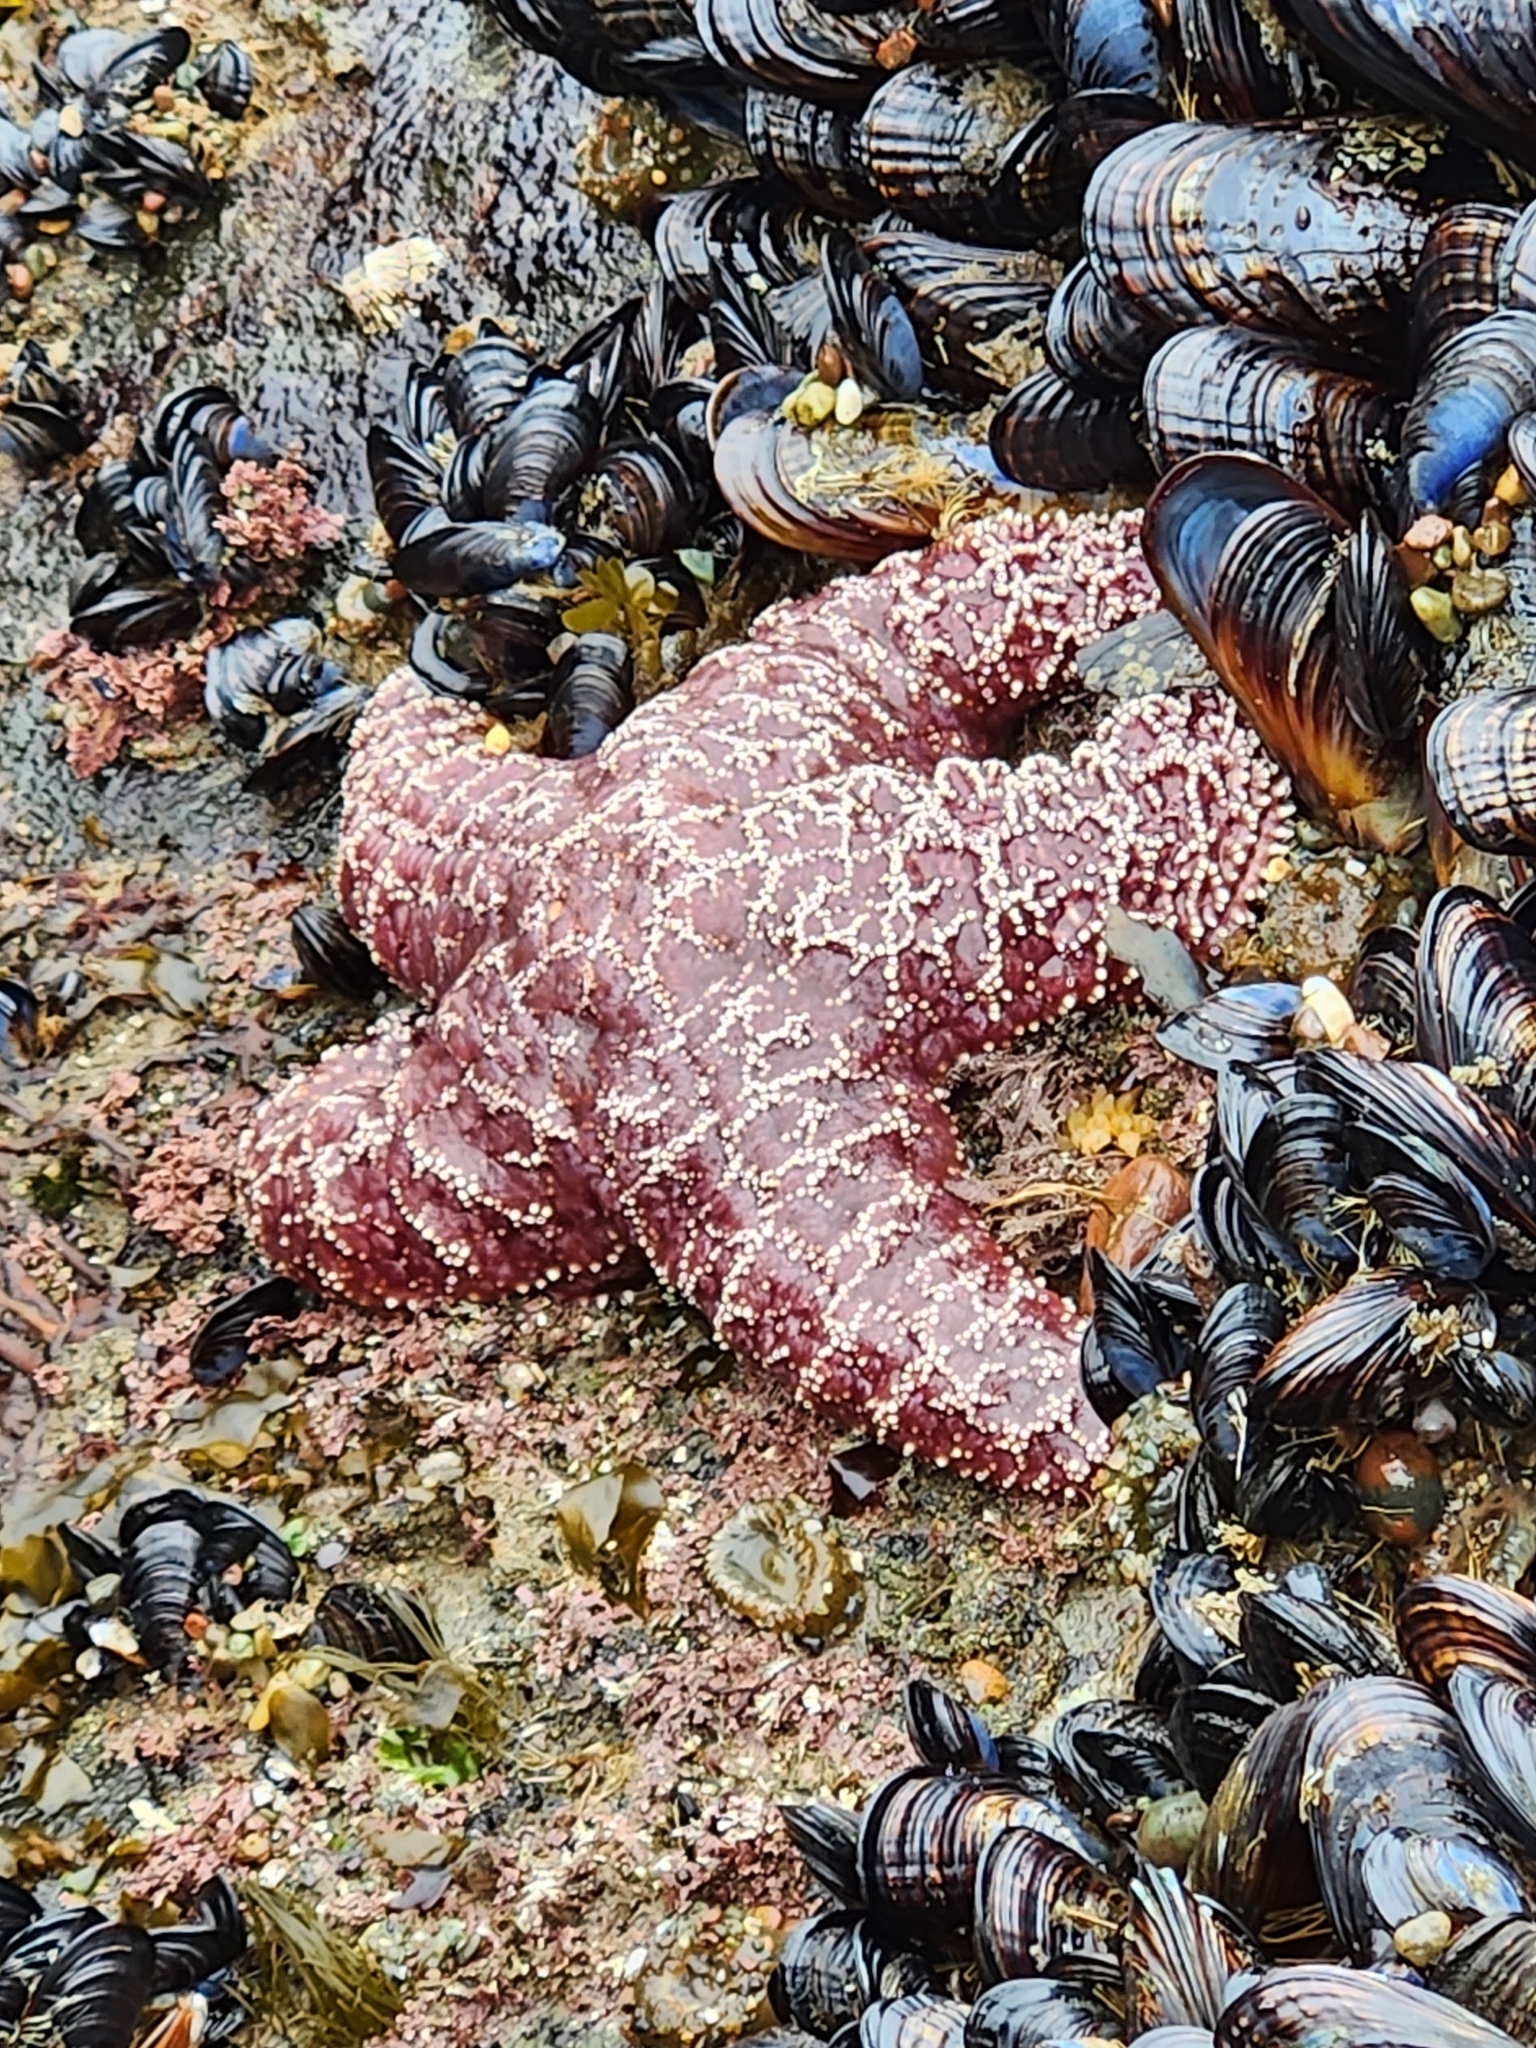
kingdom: Animalia
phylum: Echinodermata
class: Asteroidea
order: Forcipulatida
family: Asteriidae
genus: Pisaster
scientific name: Pisaster ochraceus
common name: Ochre stars
